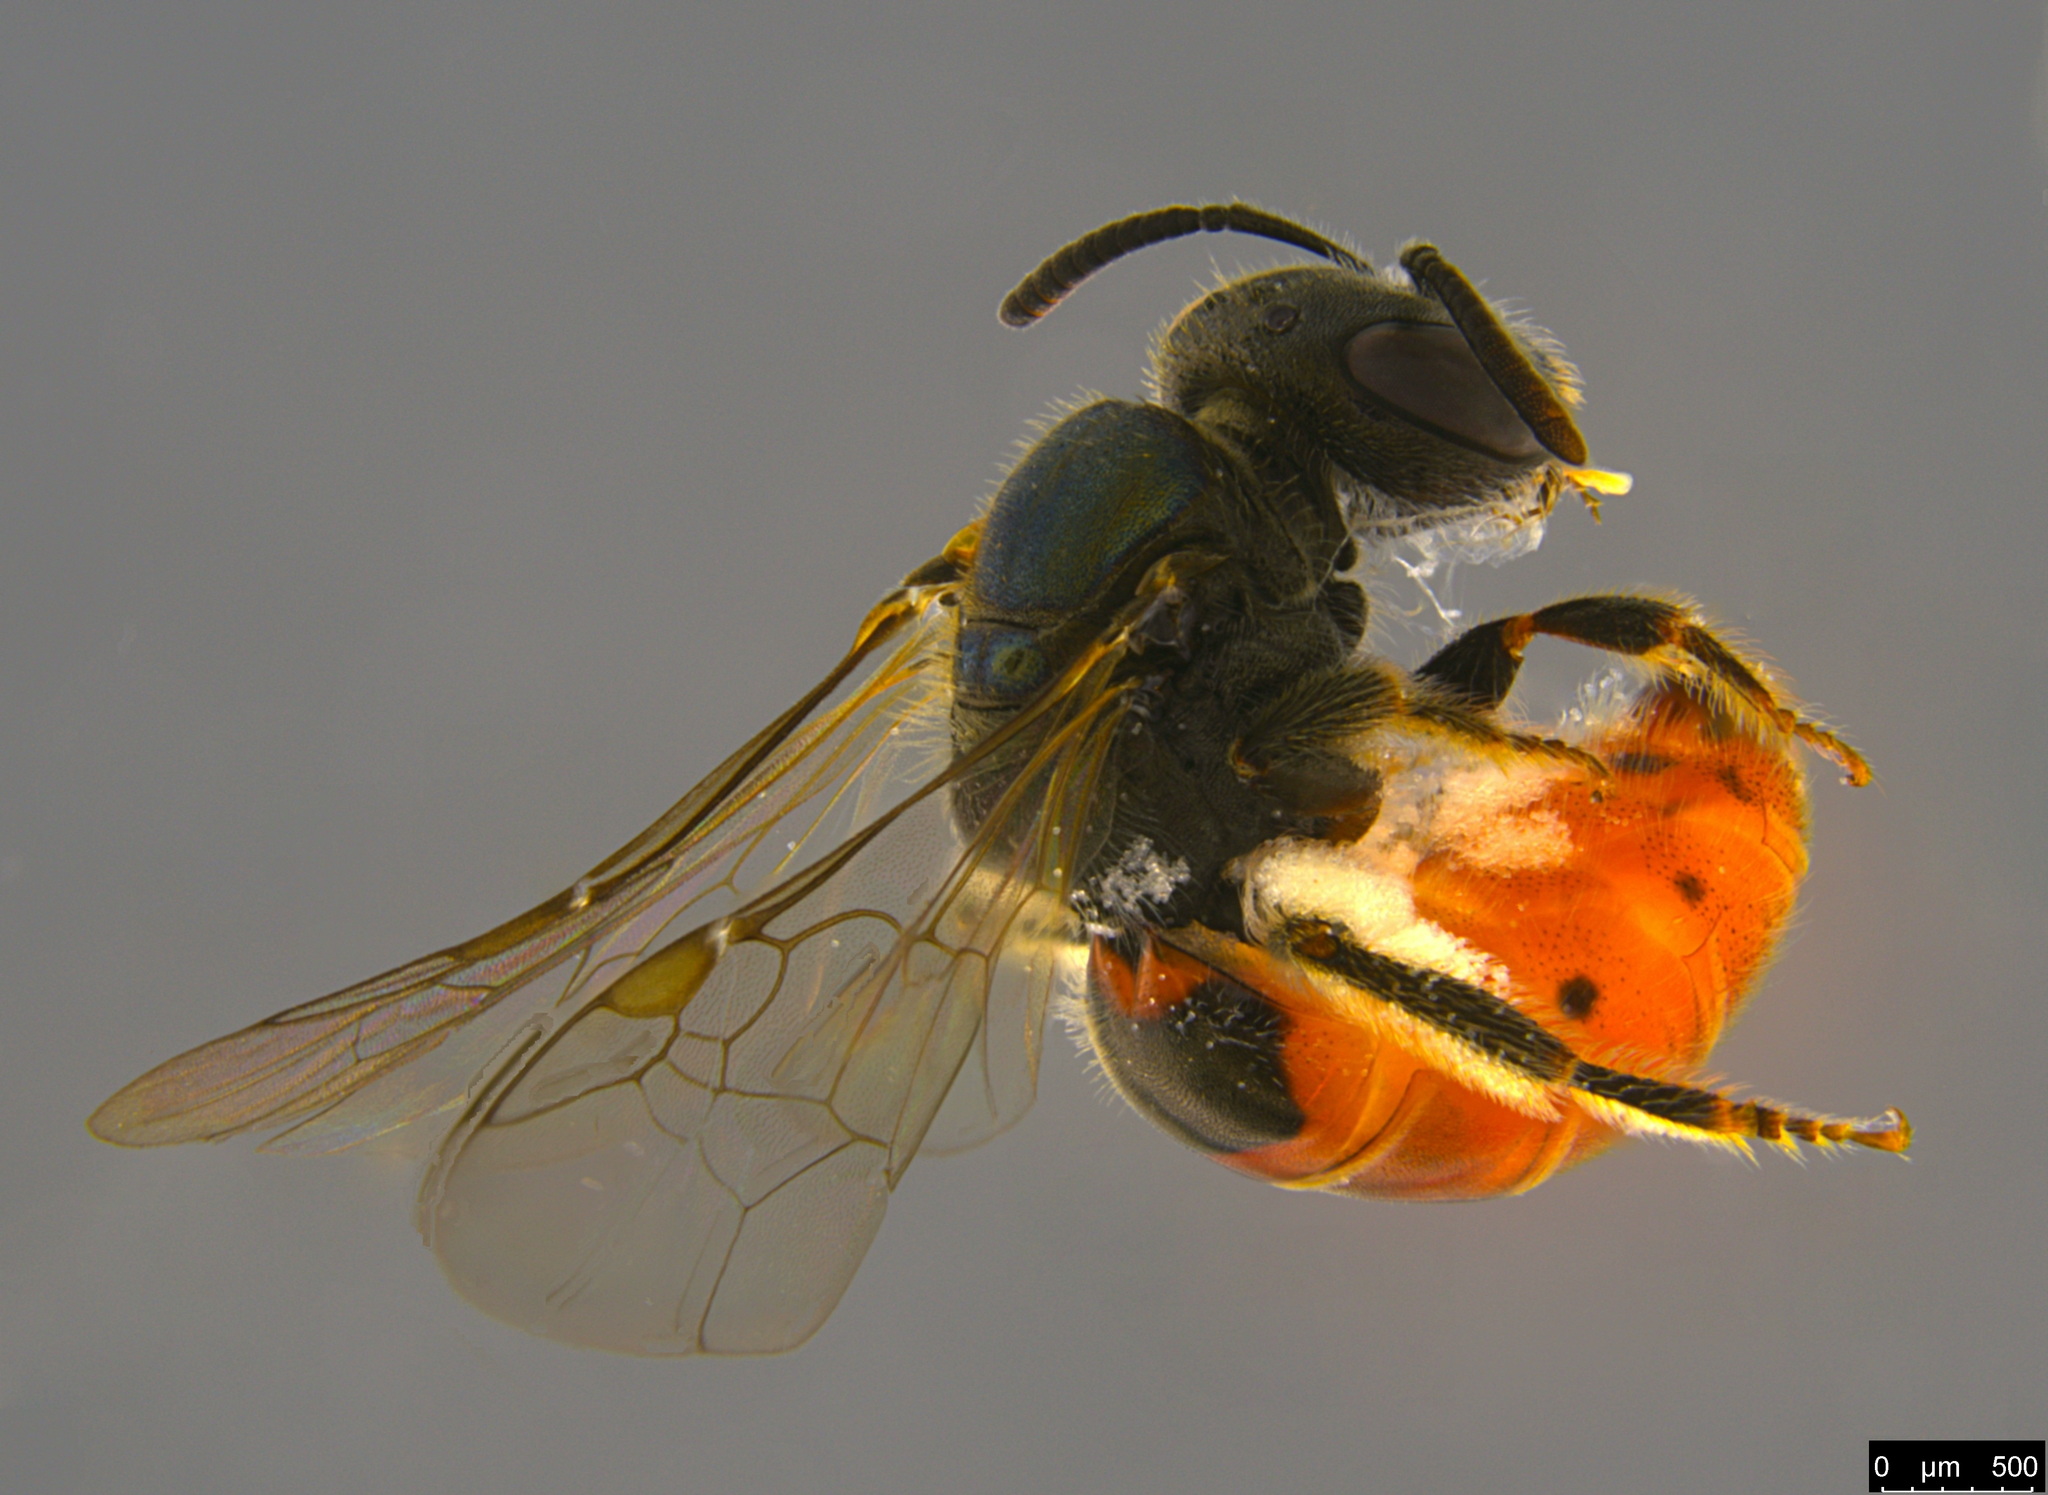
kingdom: Animalia
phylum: Arthropoda
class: Insecta
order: Hymenoptera
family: Halictidae
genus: Lasioglossum
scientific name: Lasioglossum hemichalceum
